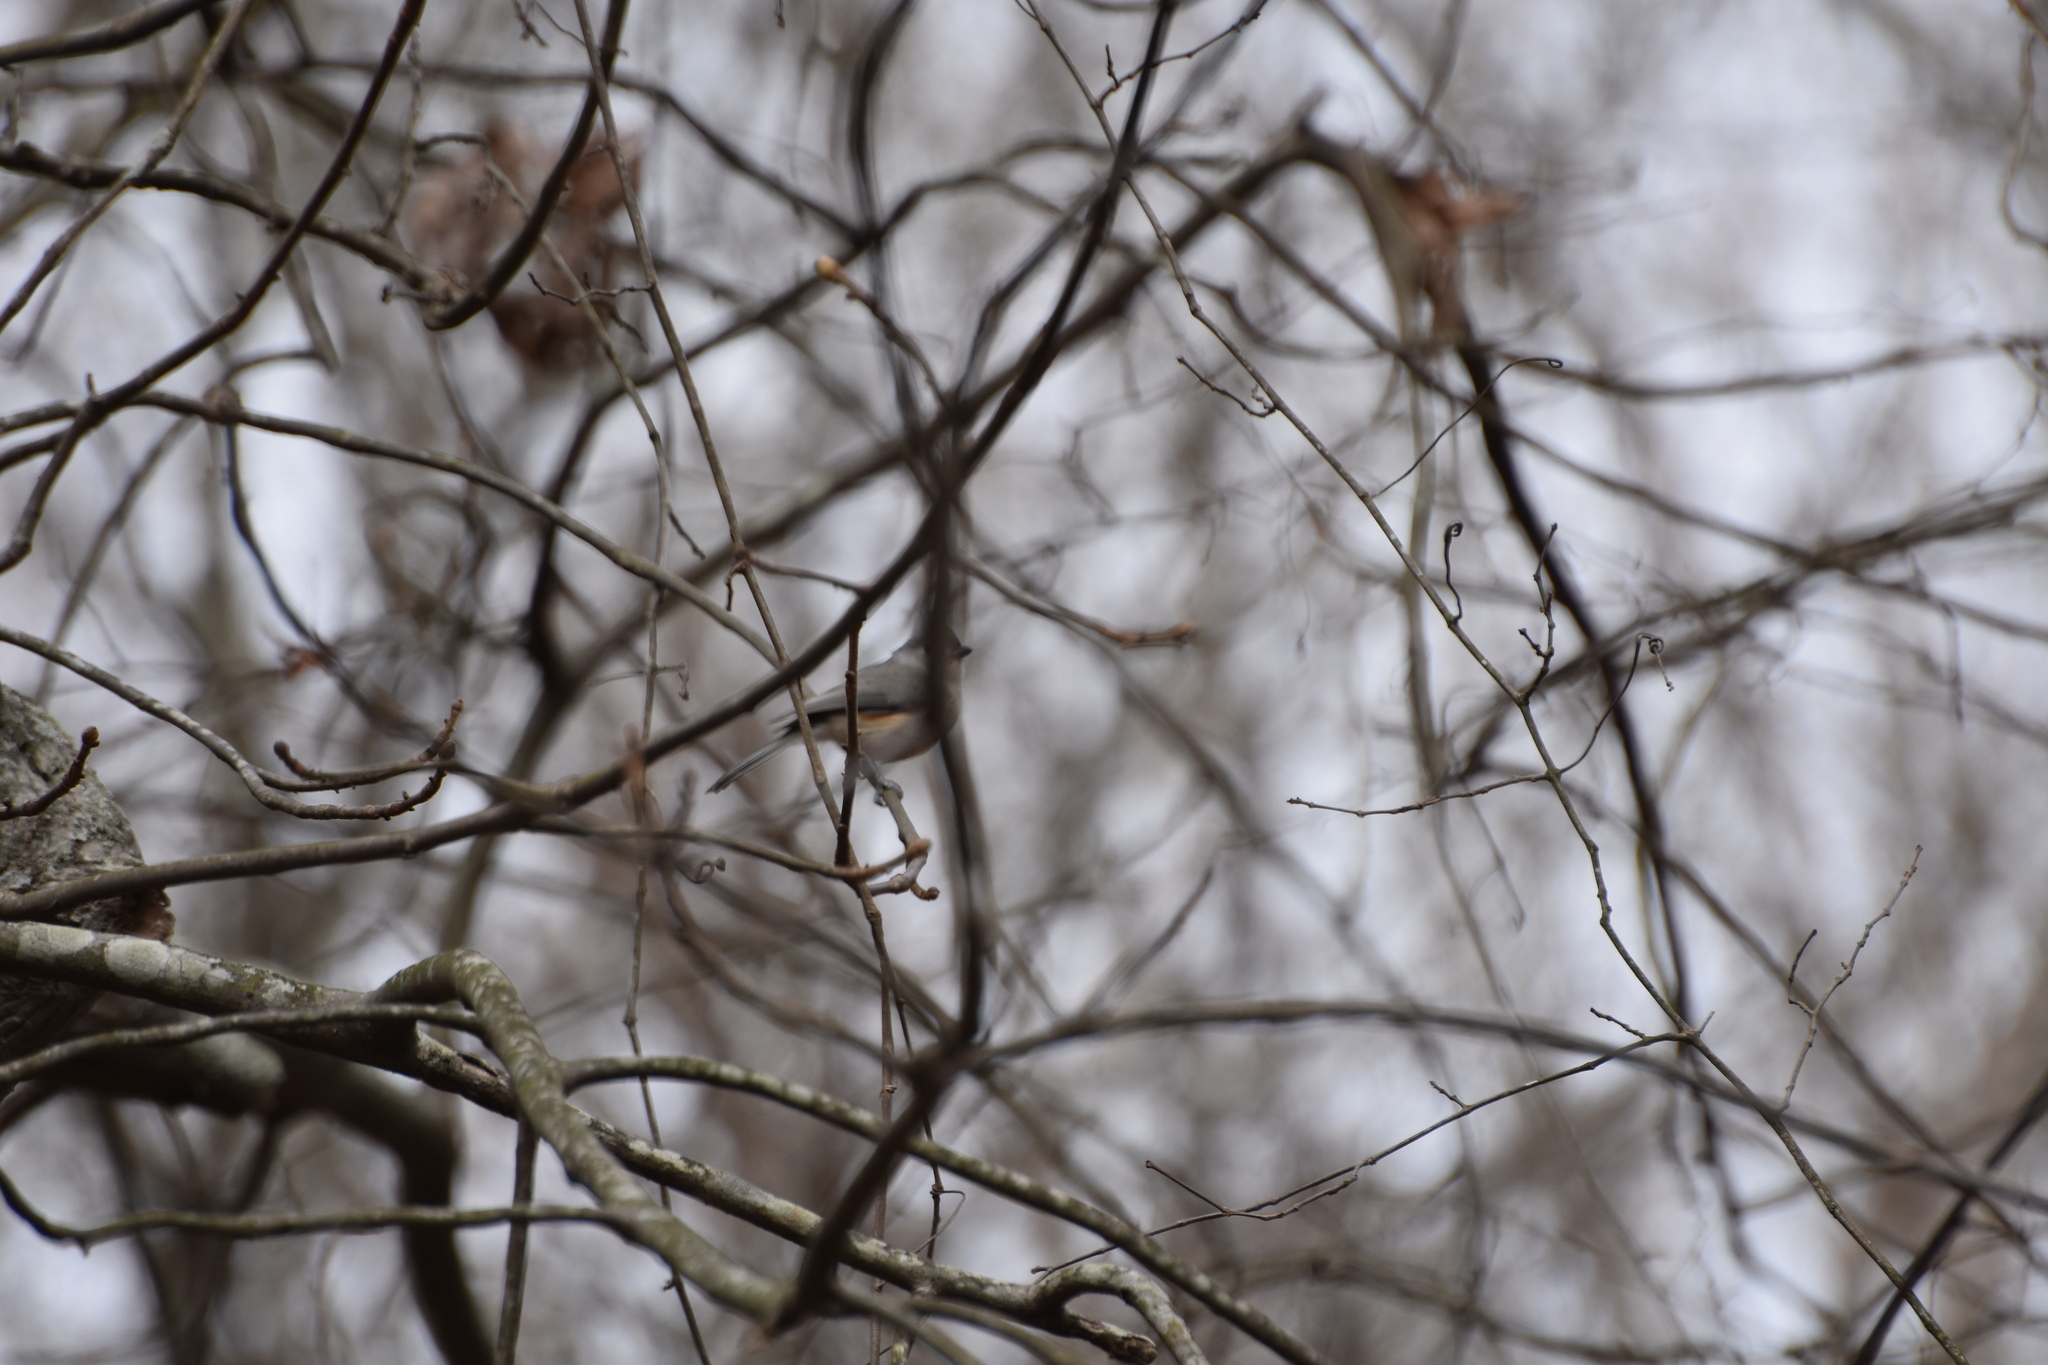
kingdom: Animalia
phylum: Chordata
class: Aves
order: Passeriformes
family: Paridae
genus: Baeolophus
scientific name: Baeolophus bicolor
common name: Tufted titmouse
